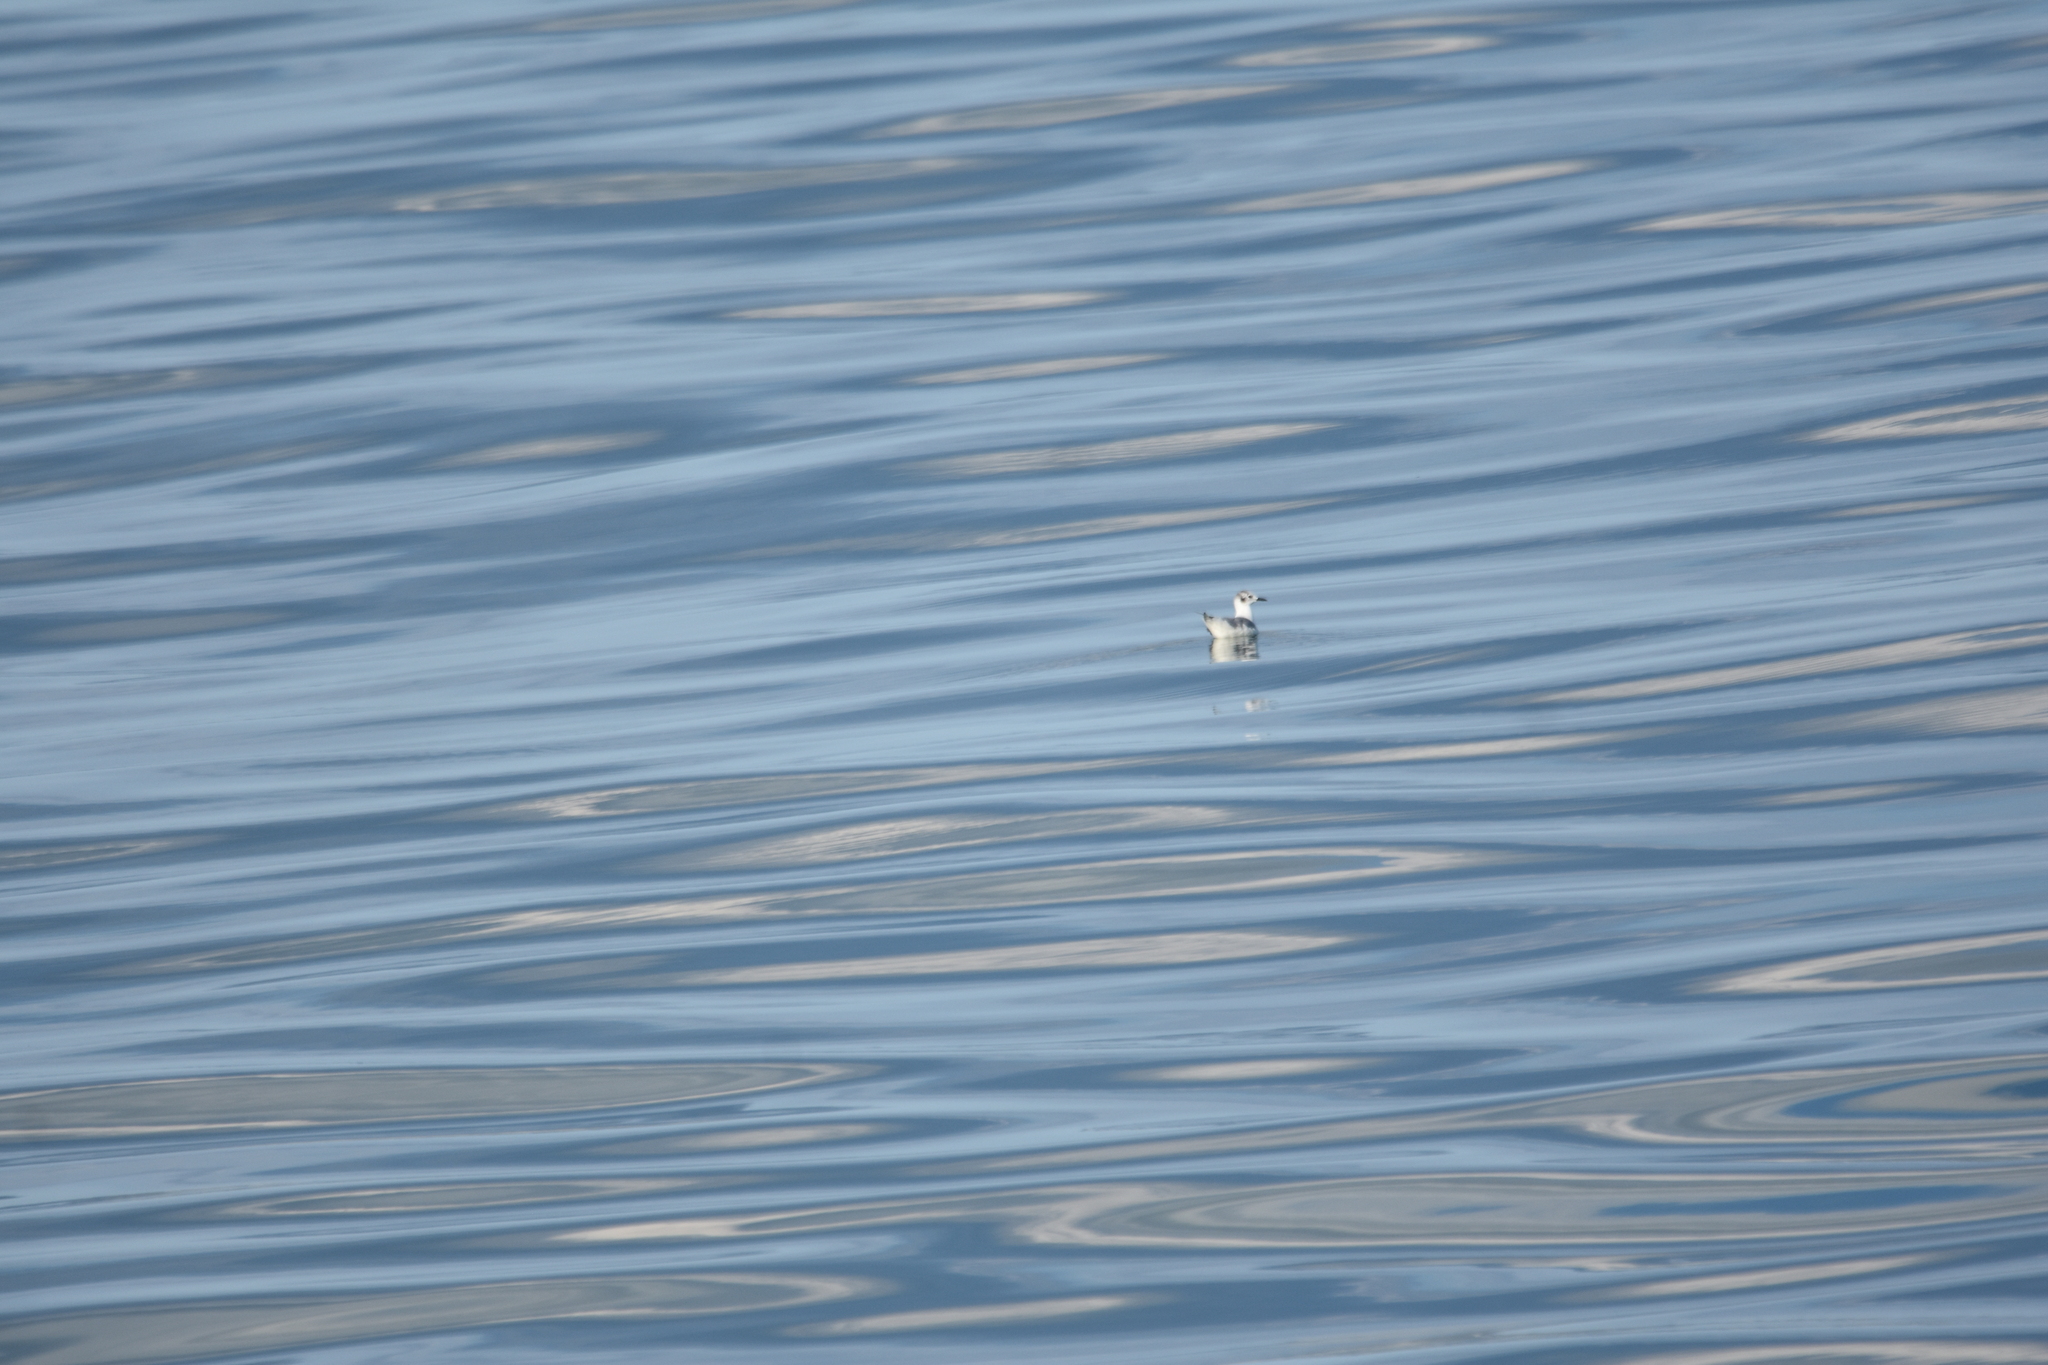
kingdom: Animalia
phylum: Chordata
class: Aves
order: Charadriiformes
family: Laridae
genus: Chroicocephalus
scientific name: Chroicocephalus philadelphia
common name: Bonaparte's gull
